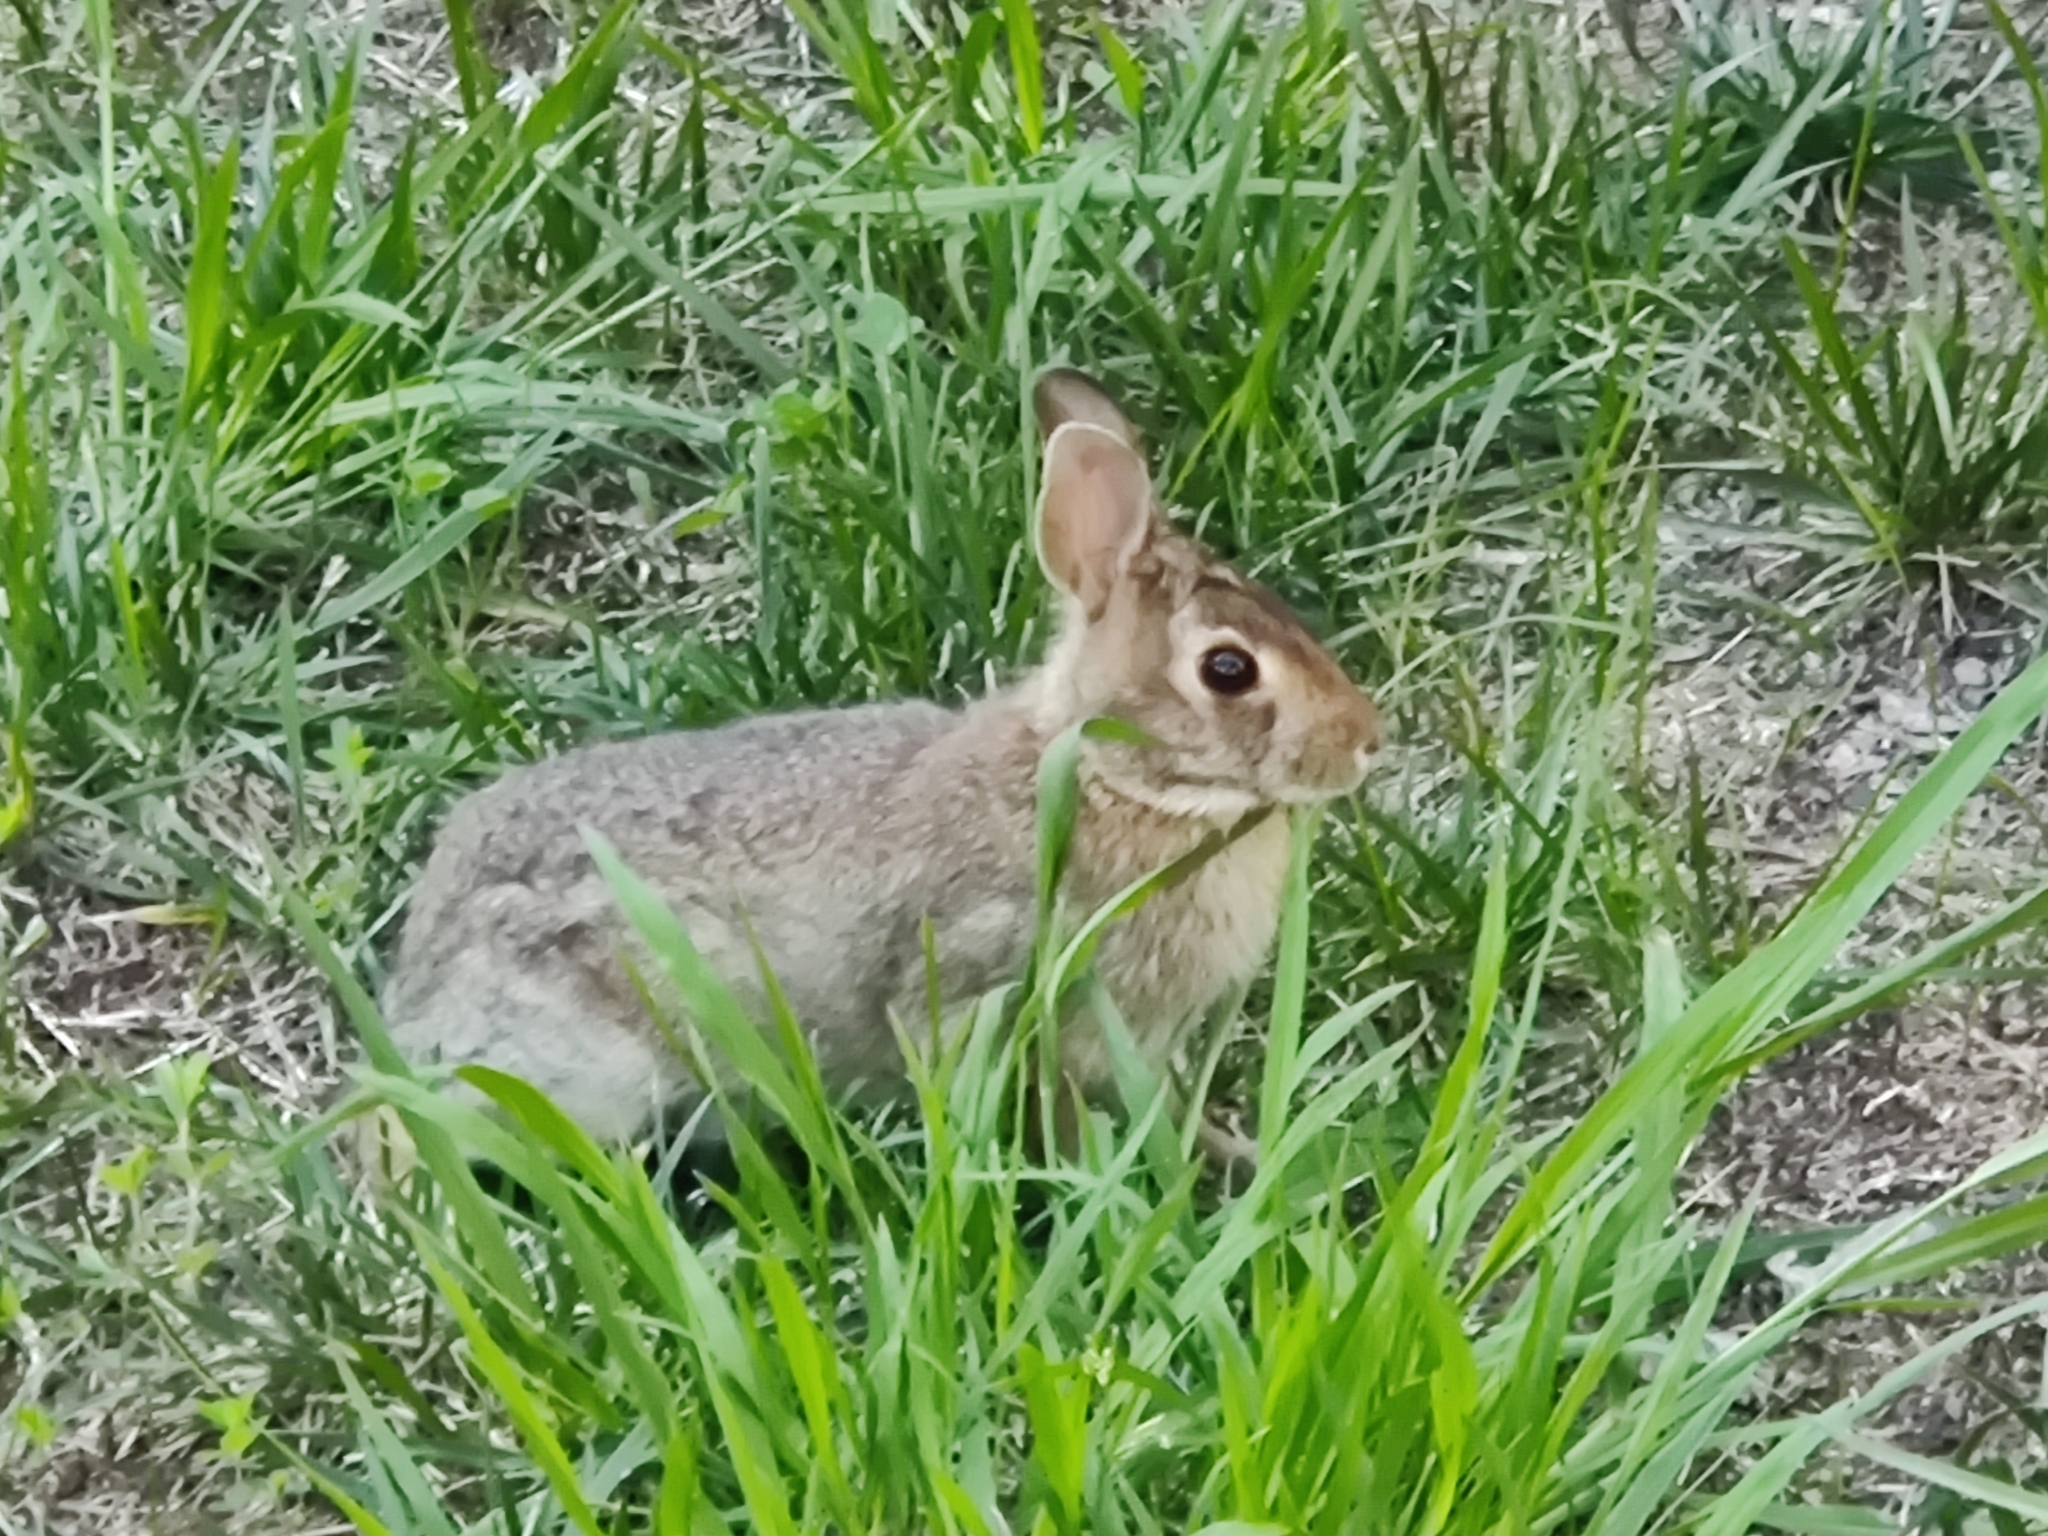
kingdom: Animalia
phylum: Chordata
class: Mammalia
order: Lagomorpha
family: Leporidae
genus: Sylvilagus
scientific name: Sylvilagus floridanus
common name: Eastern cottontail
